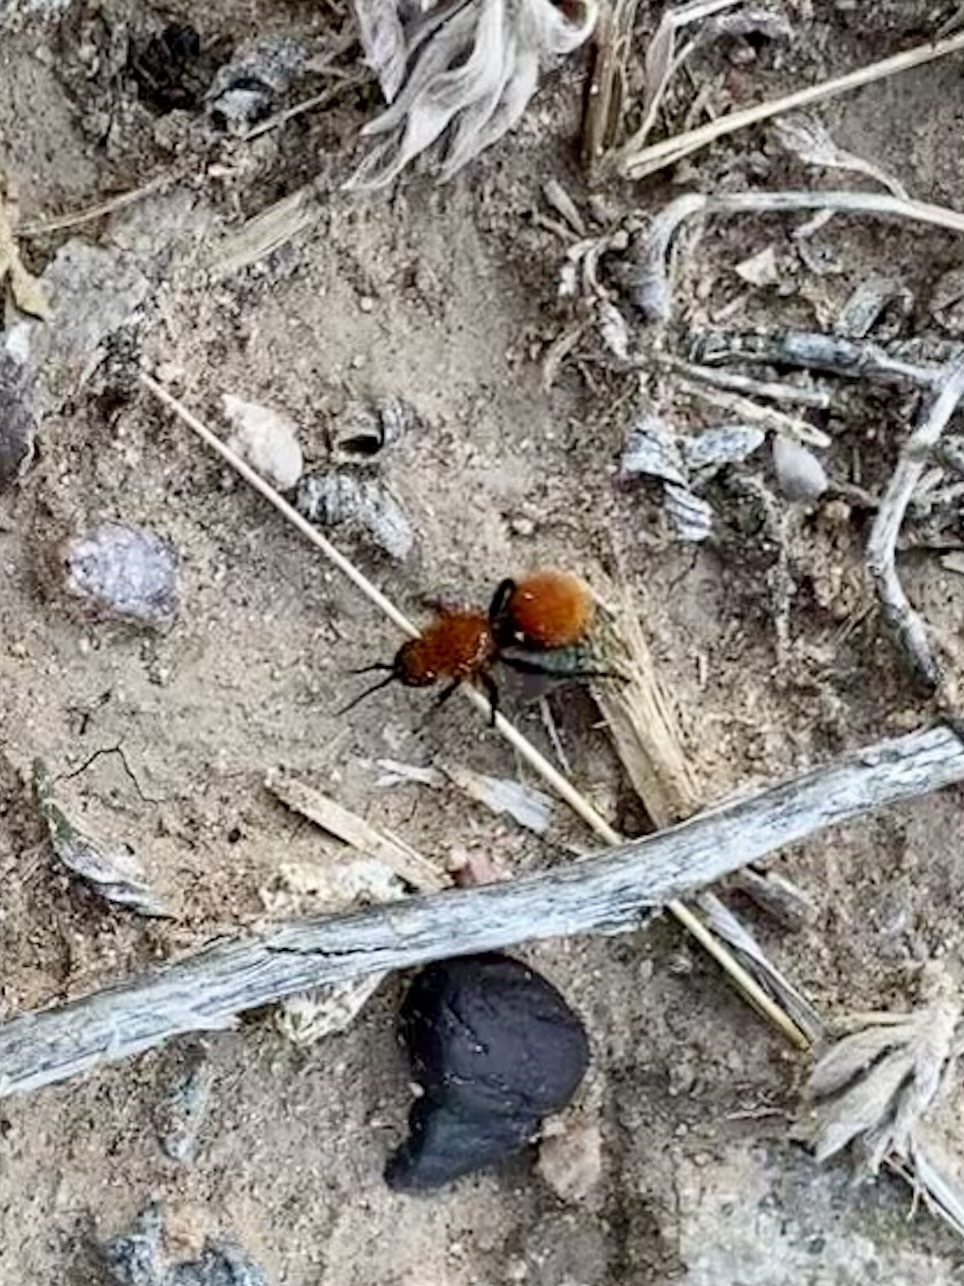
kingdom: Animalia
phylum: Arthropoda
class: Insecta
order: Hymenoptera
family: Mutillidae
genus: Dasymutilla
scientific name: Dasymutilla vestita
